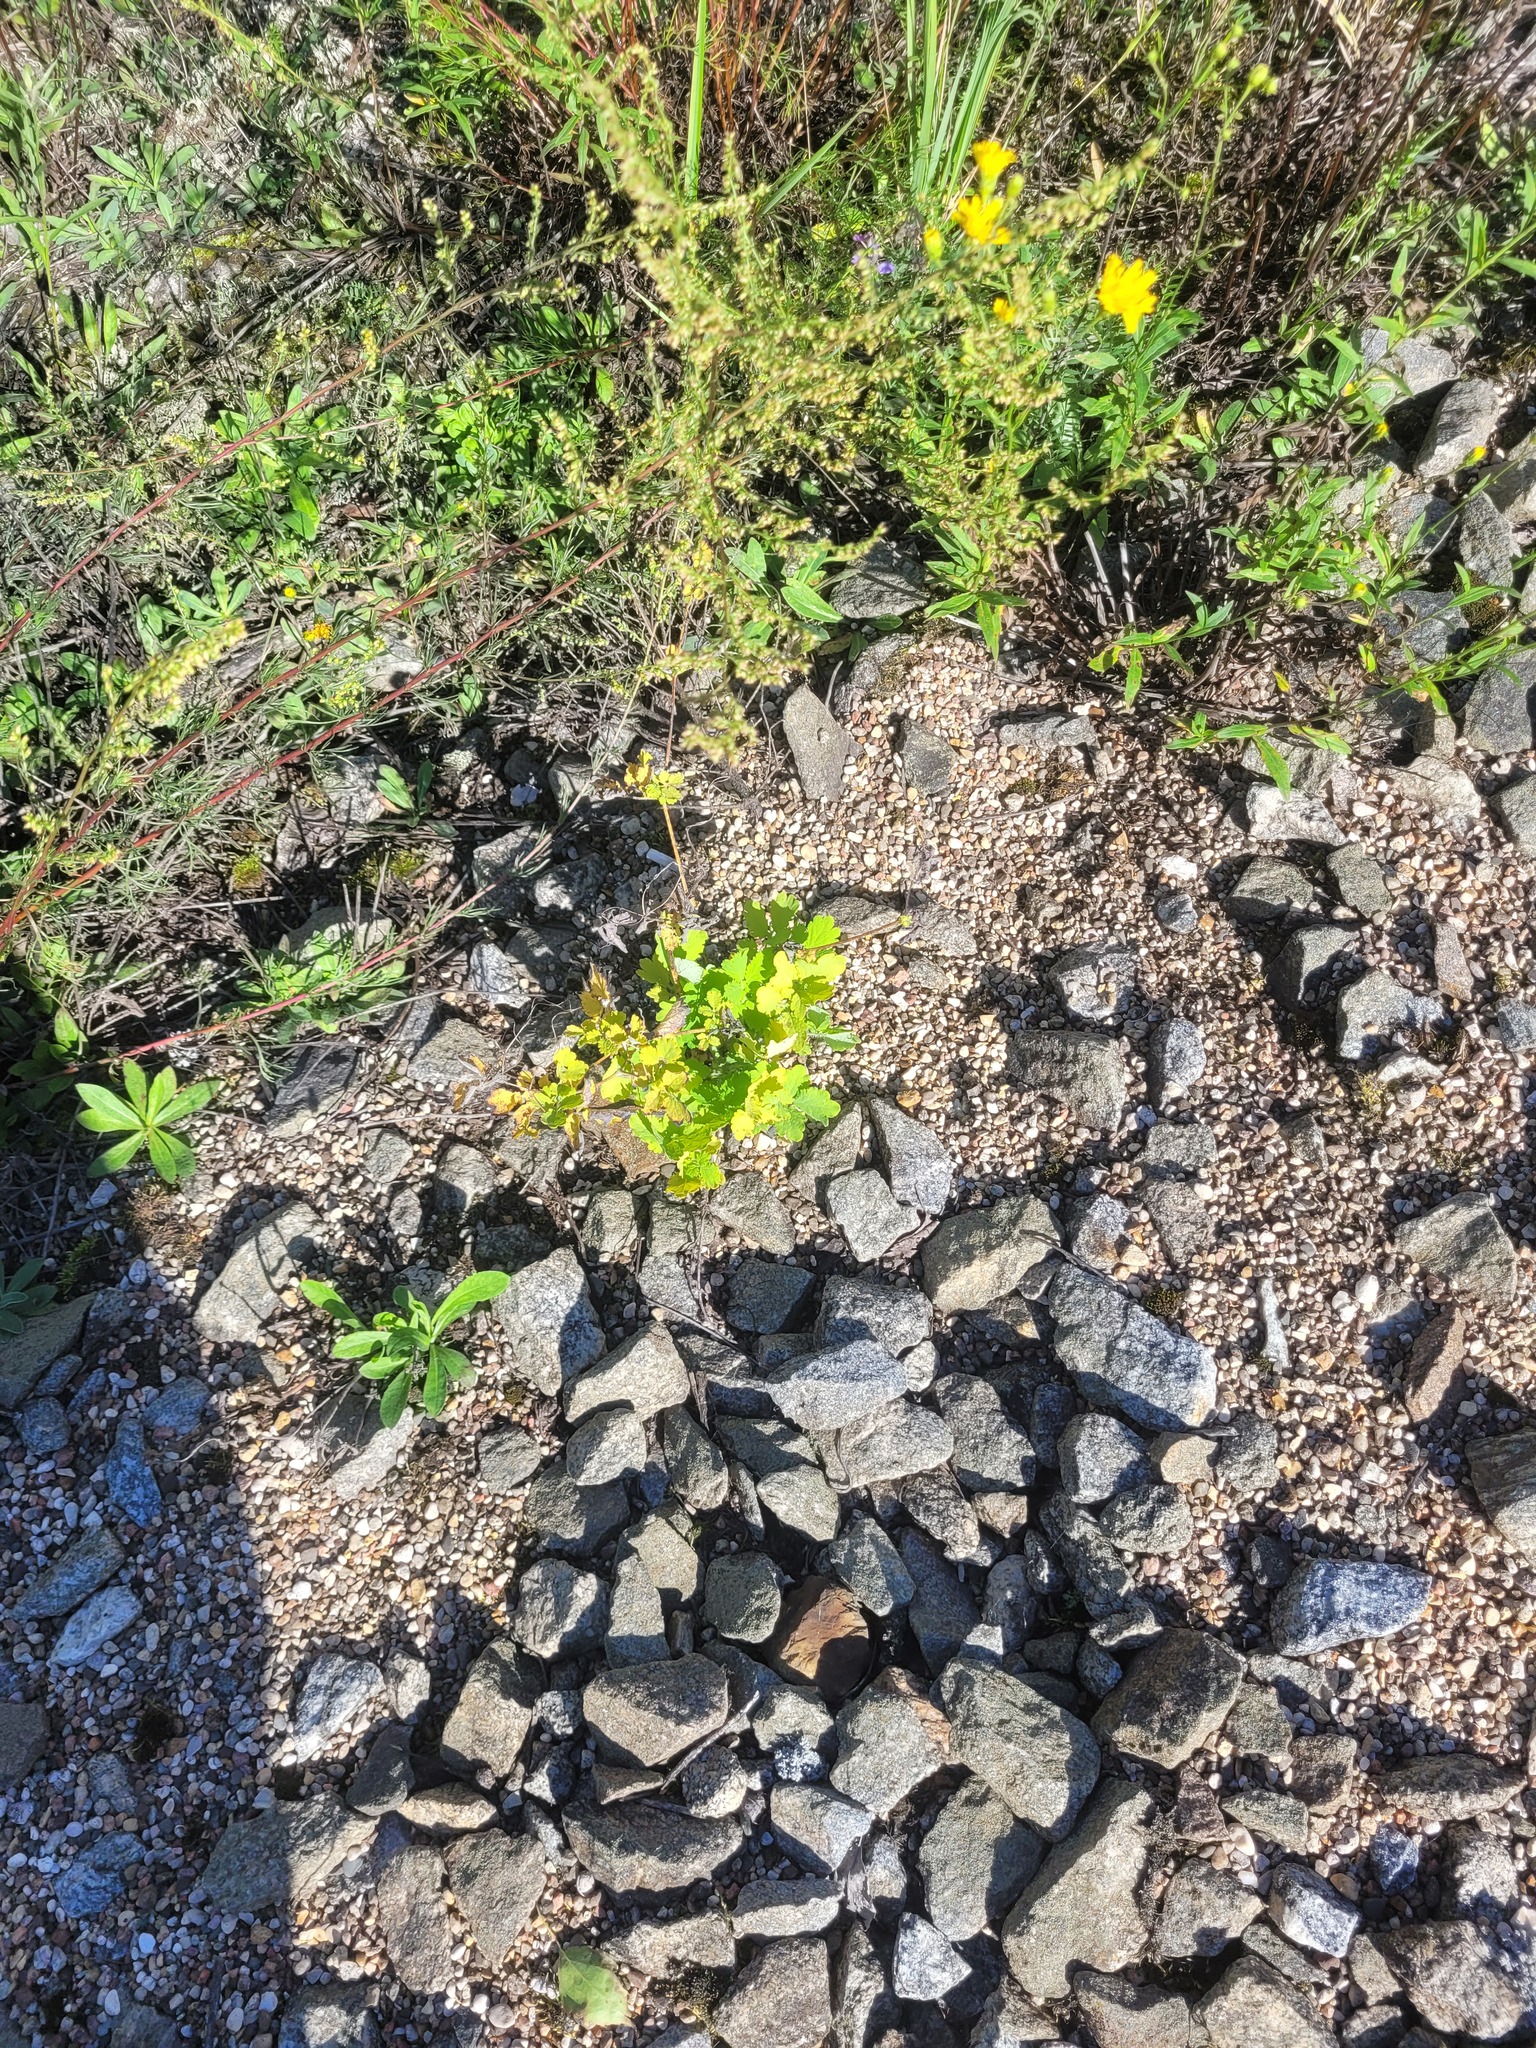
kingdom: Plantae
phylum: Tracheophyta
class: Magnoliopsida
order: Ranunculales
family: Papaveraceae
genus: Chelidonium
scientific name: Chelidonium majus
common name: Greater celandine
